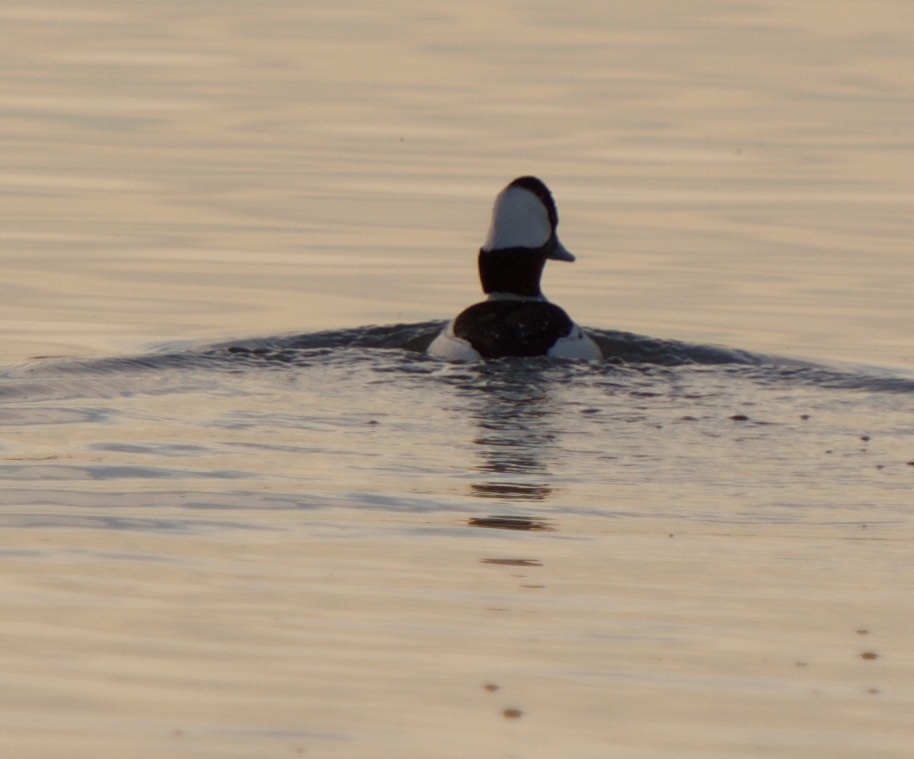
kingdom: Animalia
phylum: Chordata
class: Aves
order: Anseriformes
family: Anatidae
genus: Bucephala
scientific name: Bucephala albeola
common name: Bufflehead
